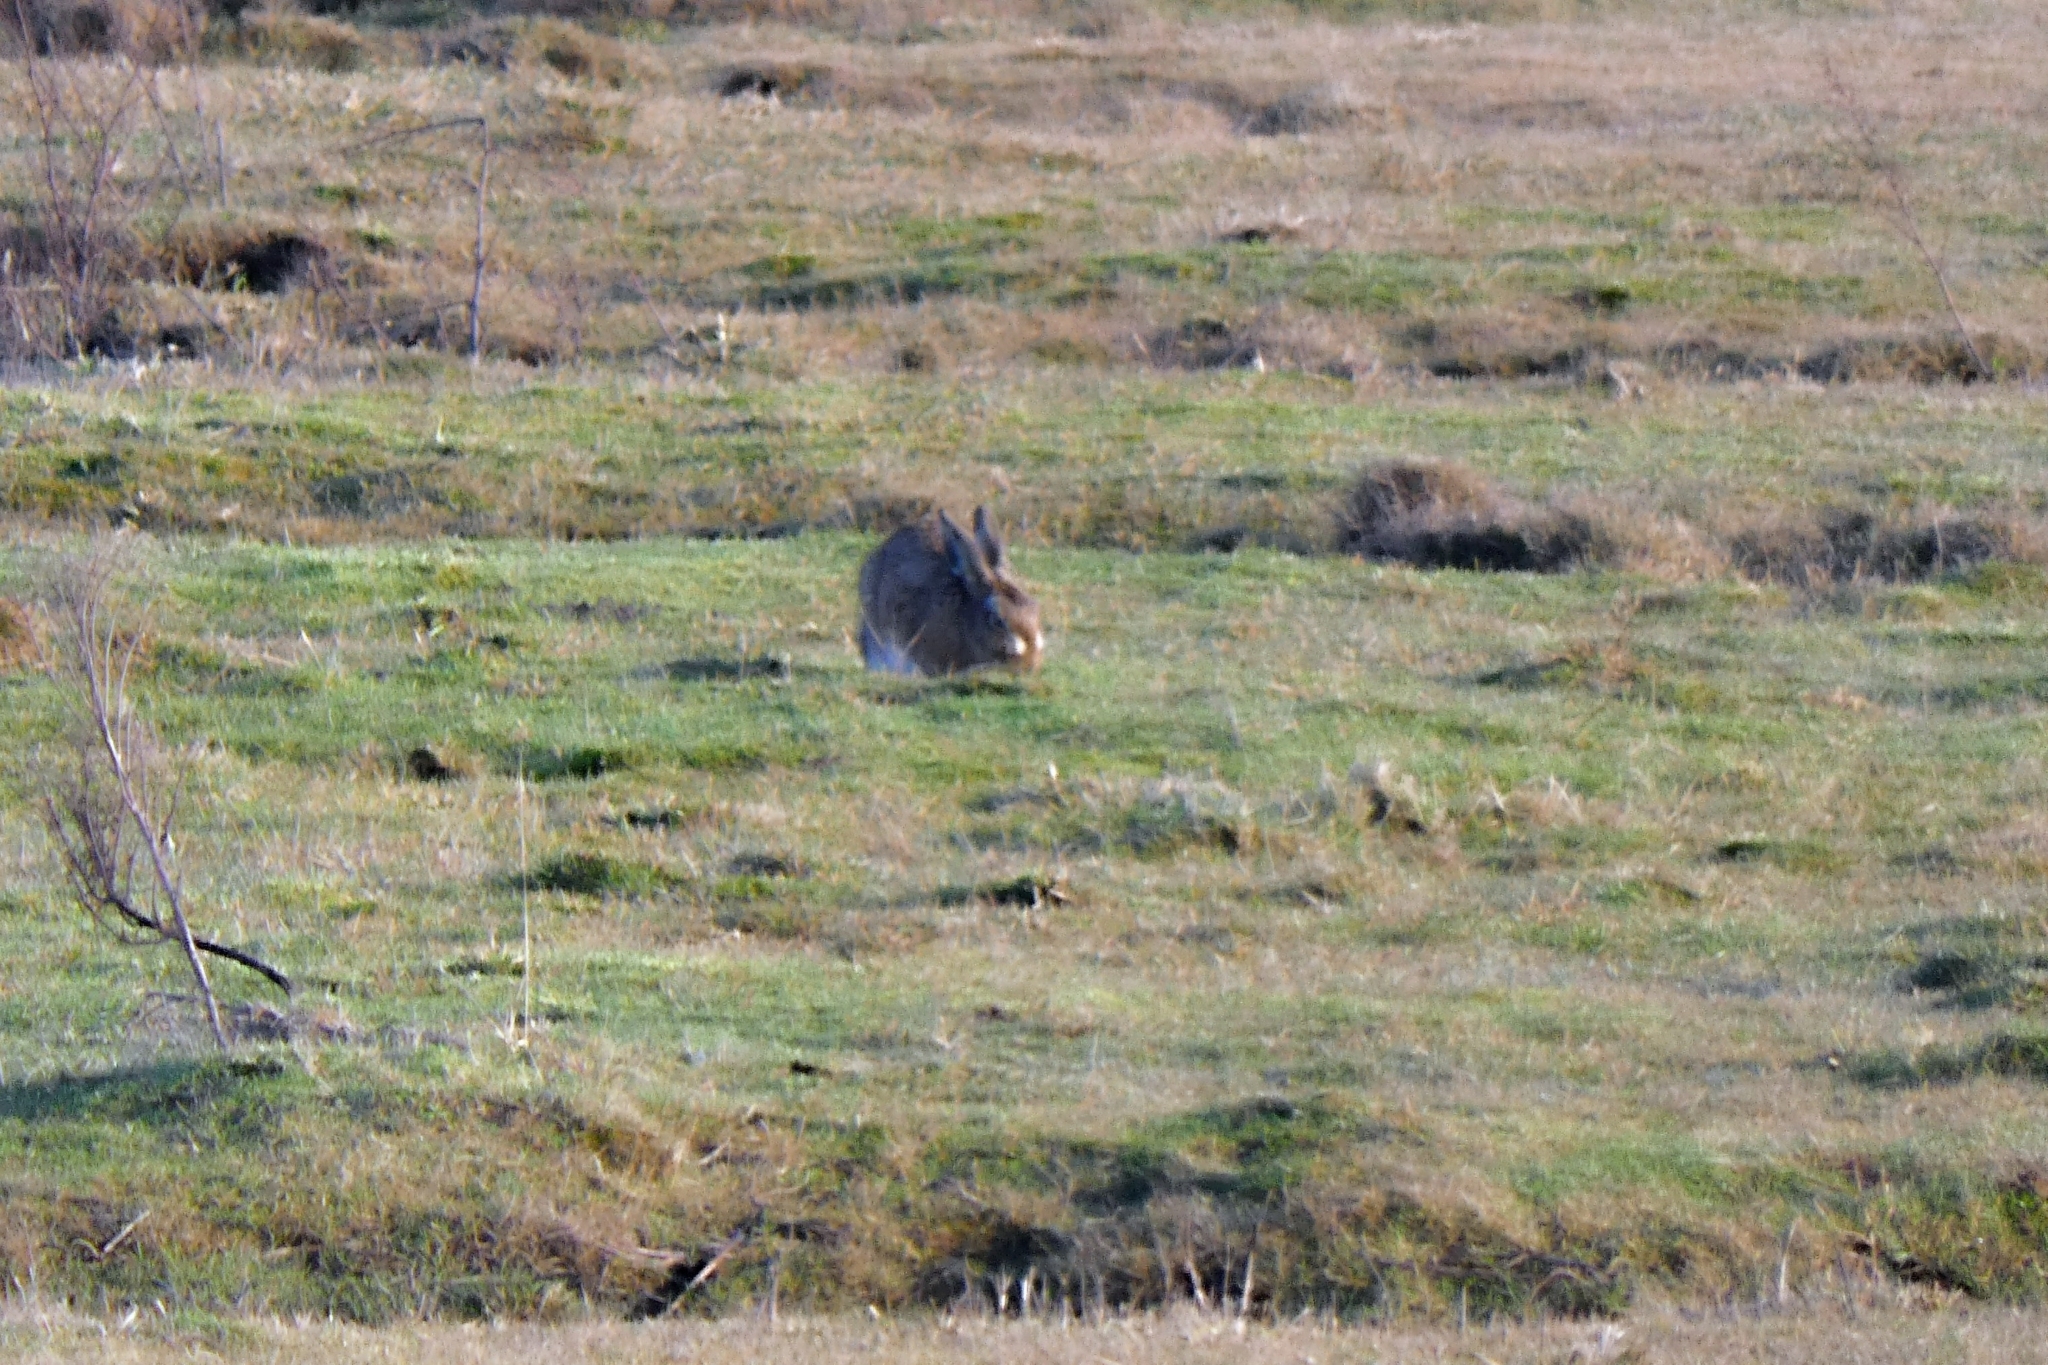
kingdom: Animalia
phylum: Chordata
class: Mammalia
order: Lagomorpha
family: Leporidae
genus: Lepus
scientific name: Lepus europaeus
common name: European hare
